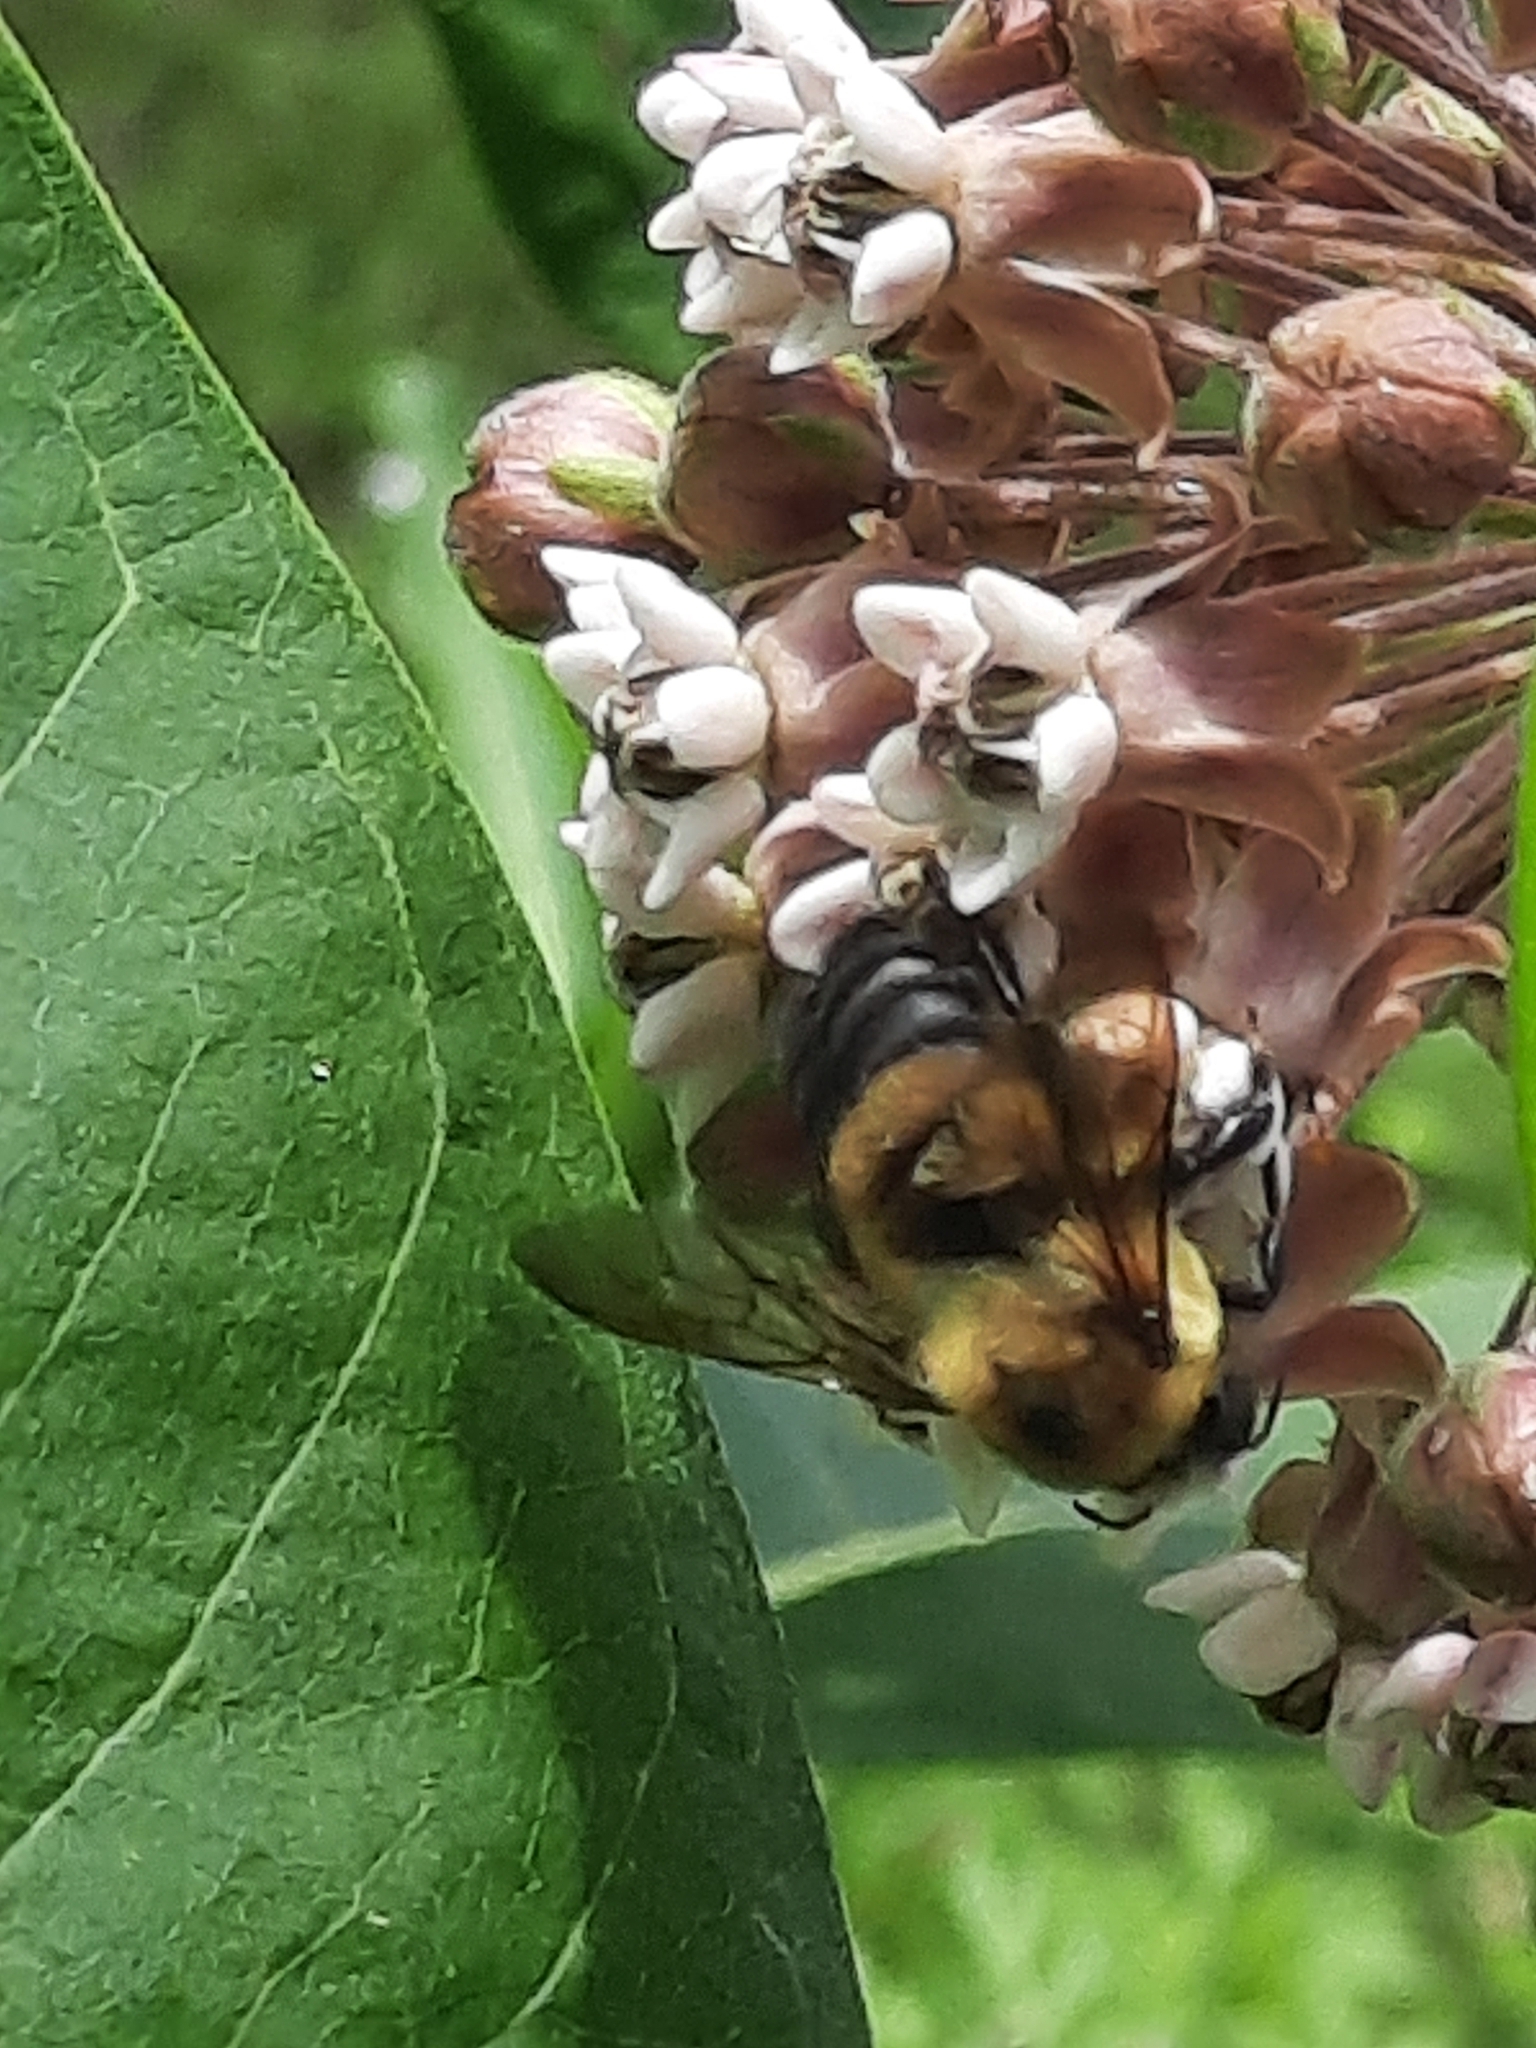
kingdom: Animalia
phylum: Arthropoda
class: Insecta
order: Hymenoptera
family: Apidae
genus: Bombus
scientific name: Bombus griseocollis
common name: Brown-belted bumble bee
